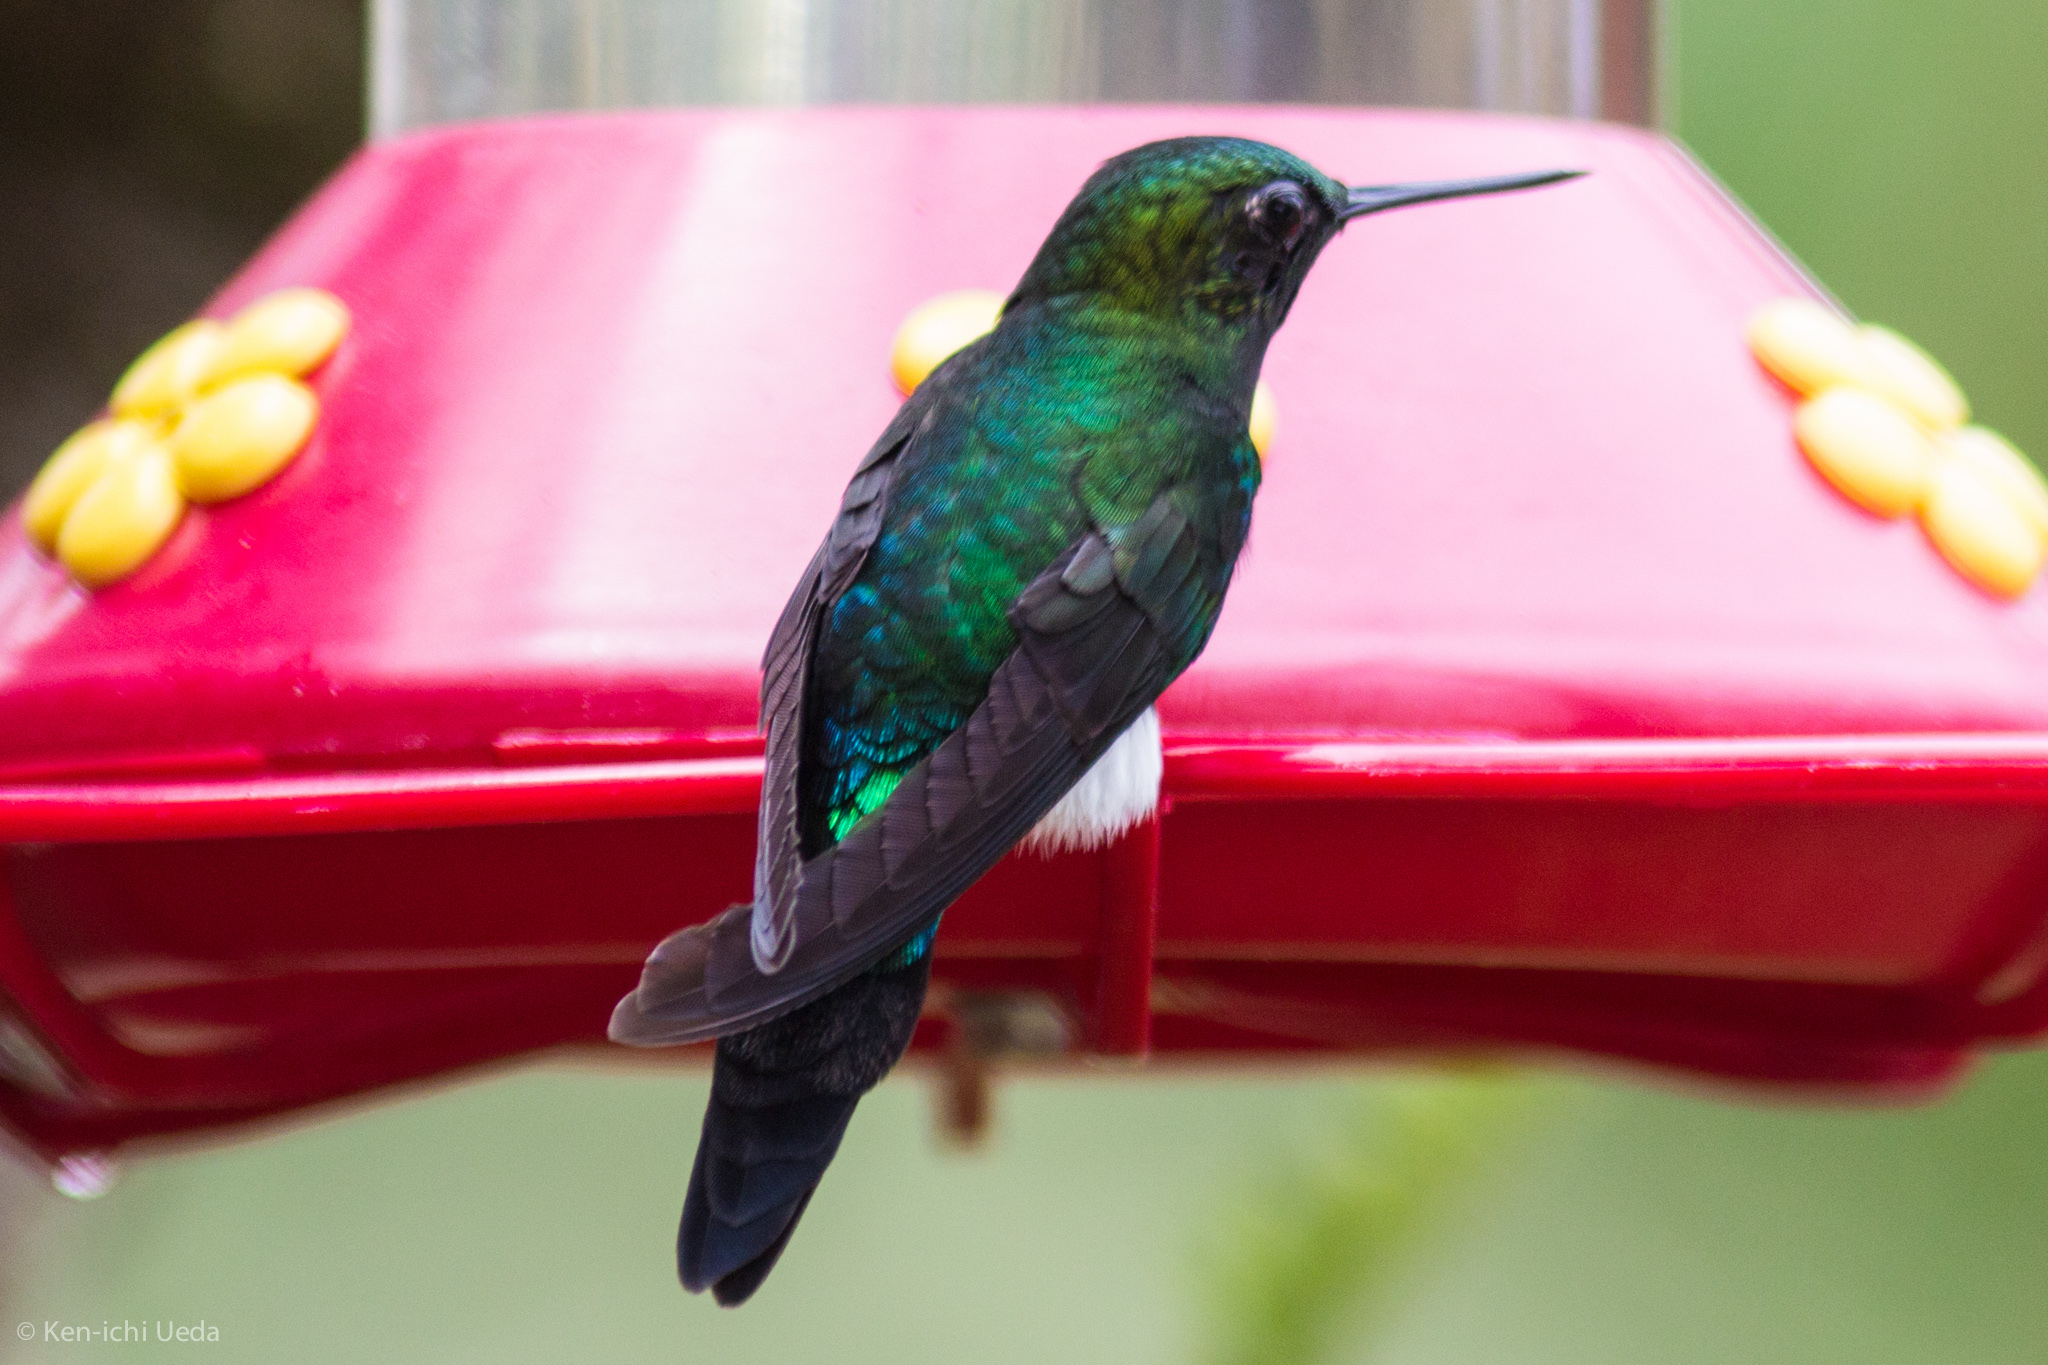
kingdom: Animalia
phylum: Chordata
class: Aves
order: Apodiformes
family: Trochilidae
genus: Eriocnemis
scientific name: Eriocnemis vestita
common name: Glowing puffleg
